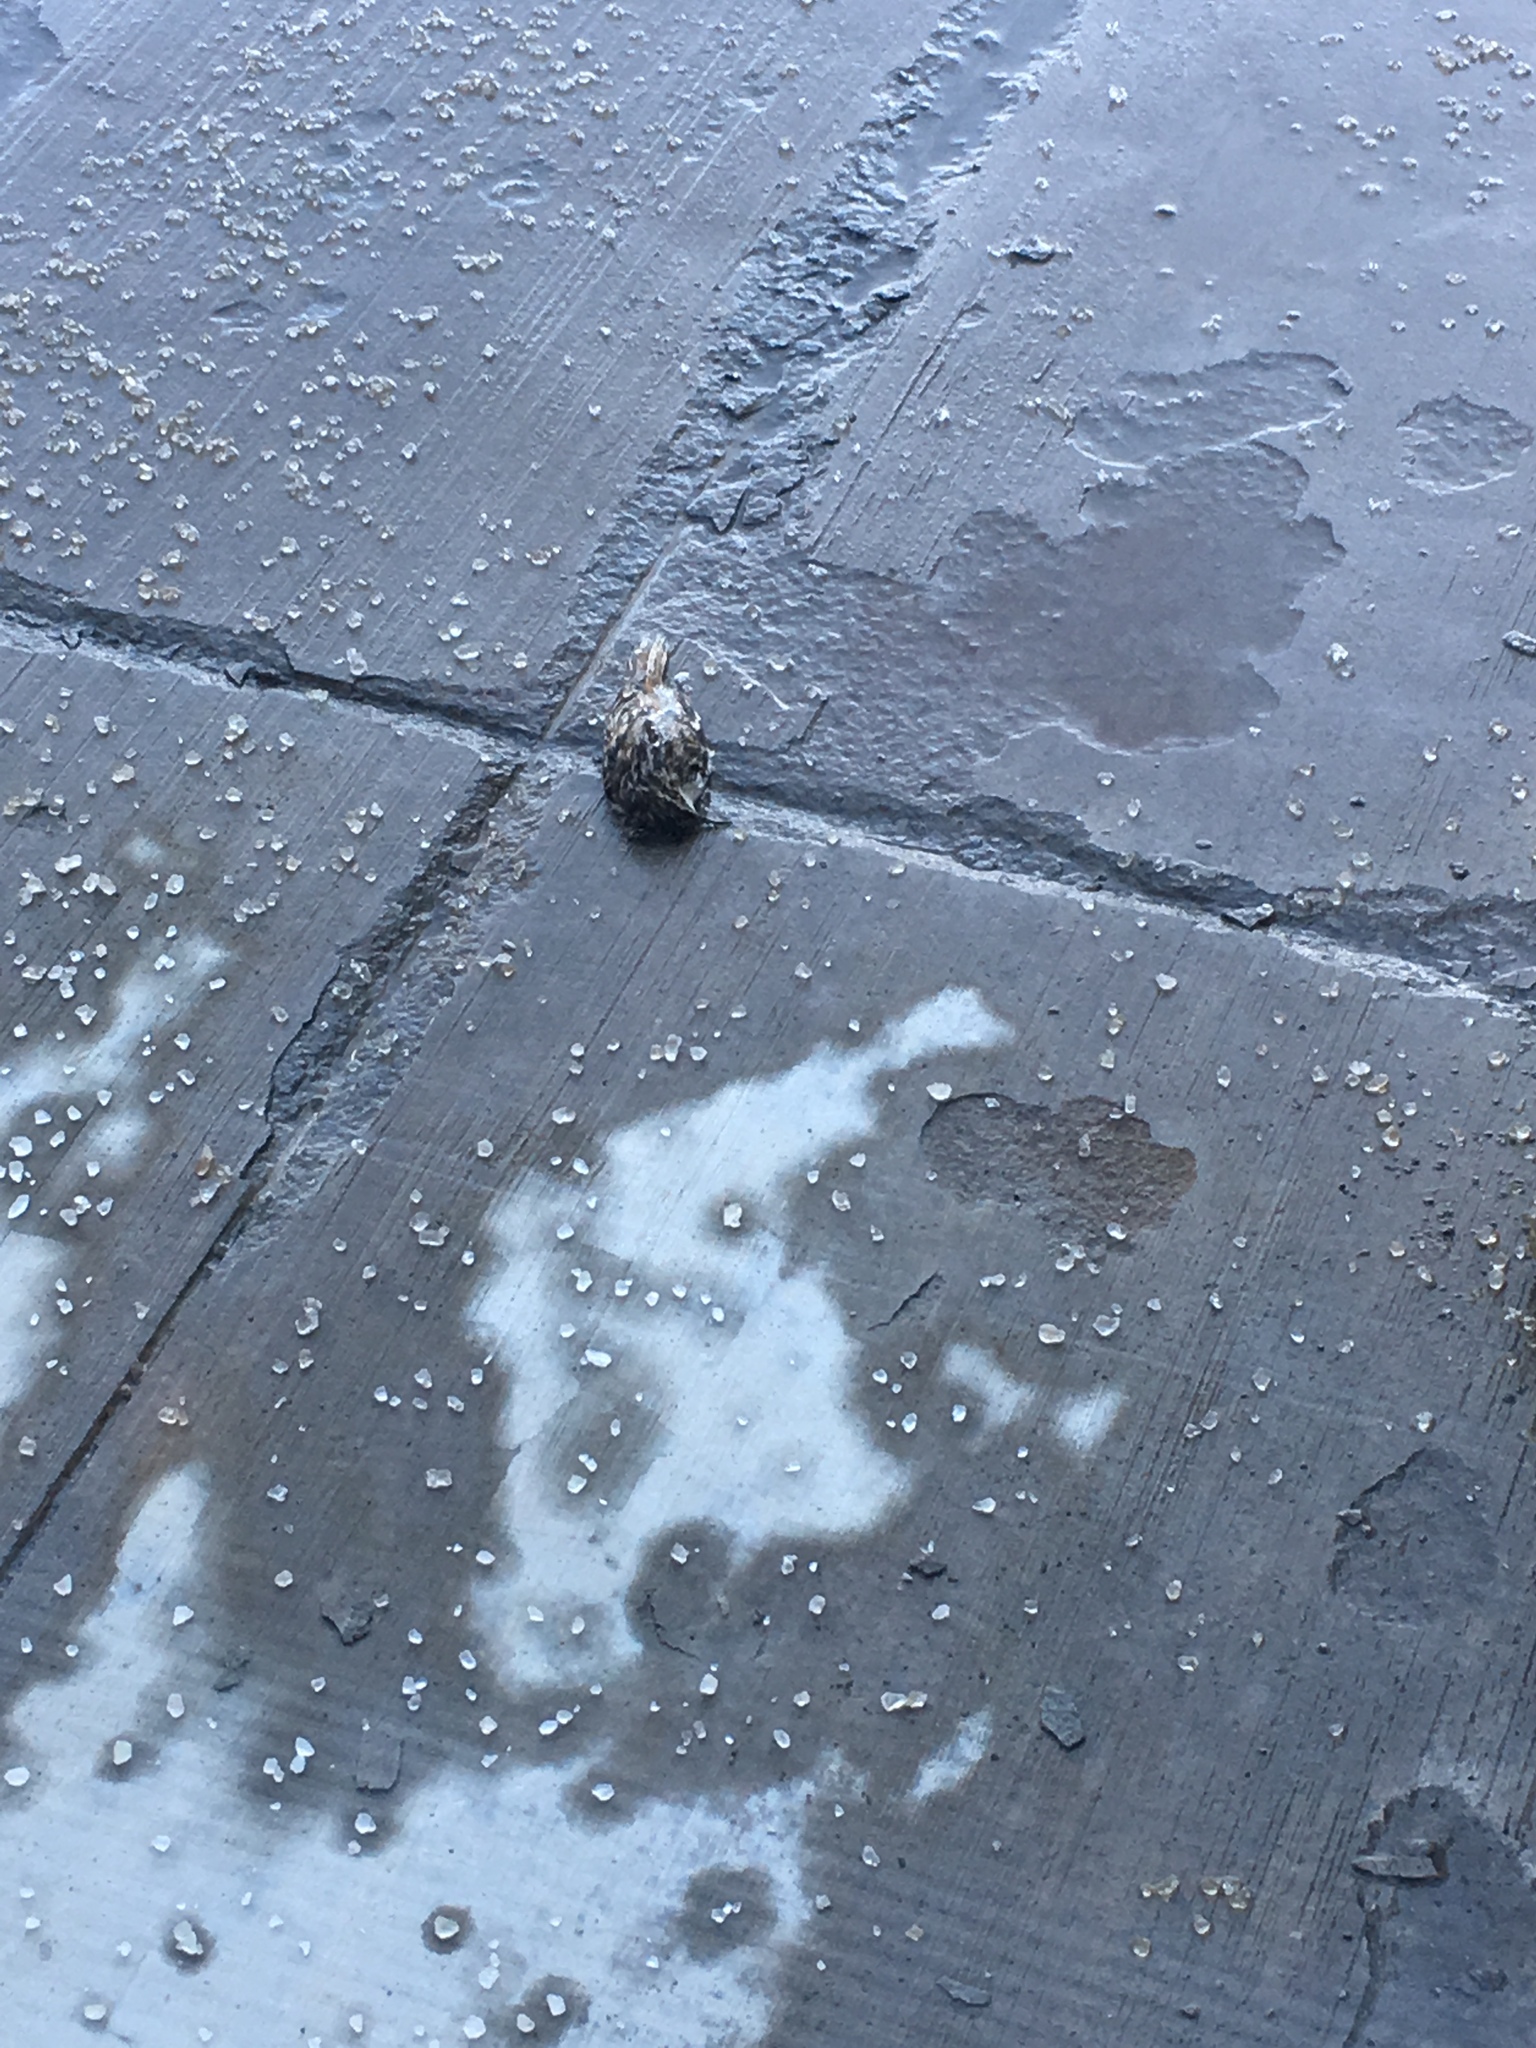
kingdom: Animalia
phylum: Chordata
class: Aves
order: Passeriformes
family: Certhiidae
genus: Certhia
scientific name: Certhia americana
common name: Brown creeper
